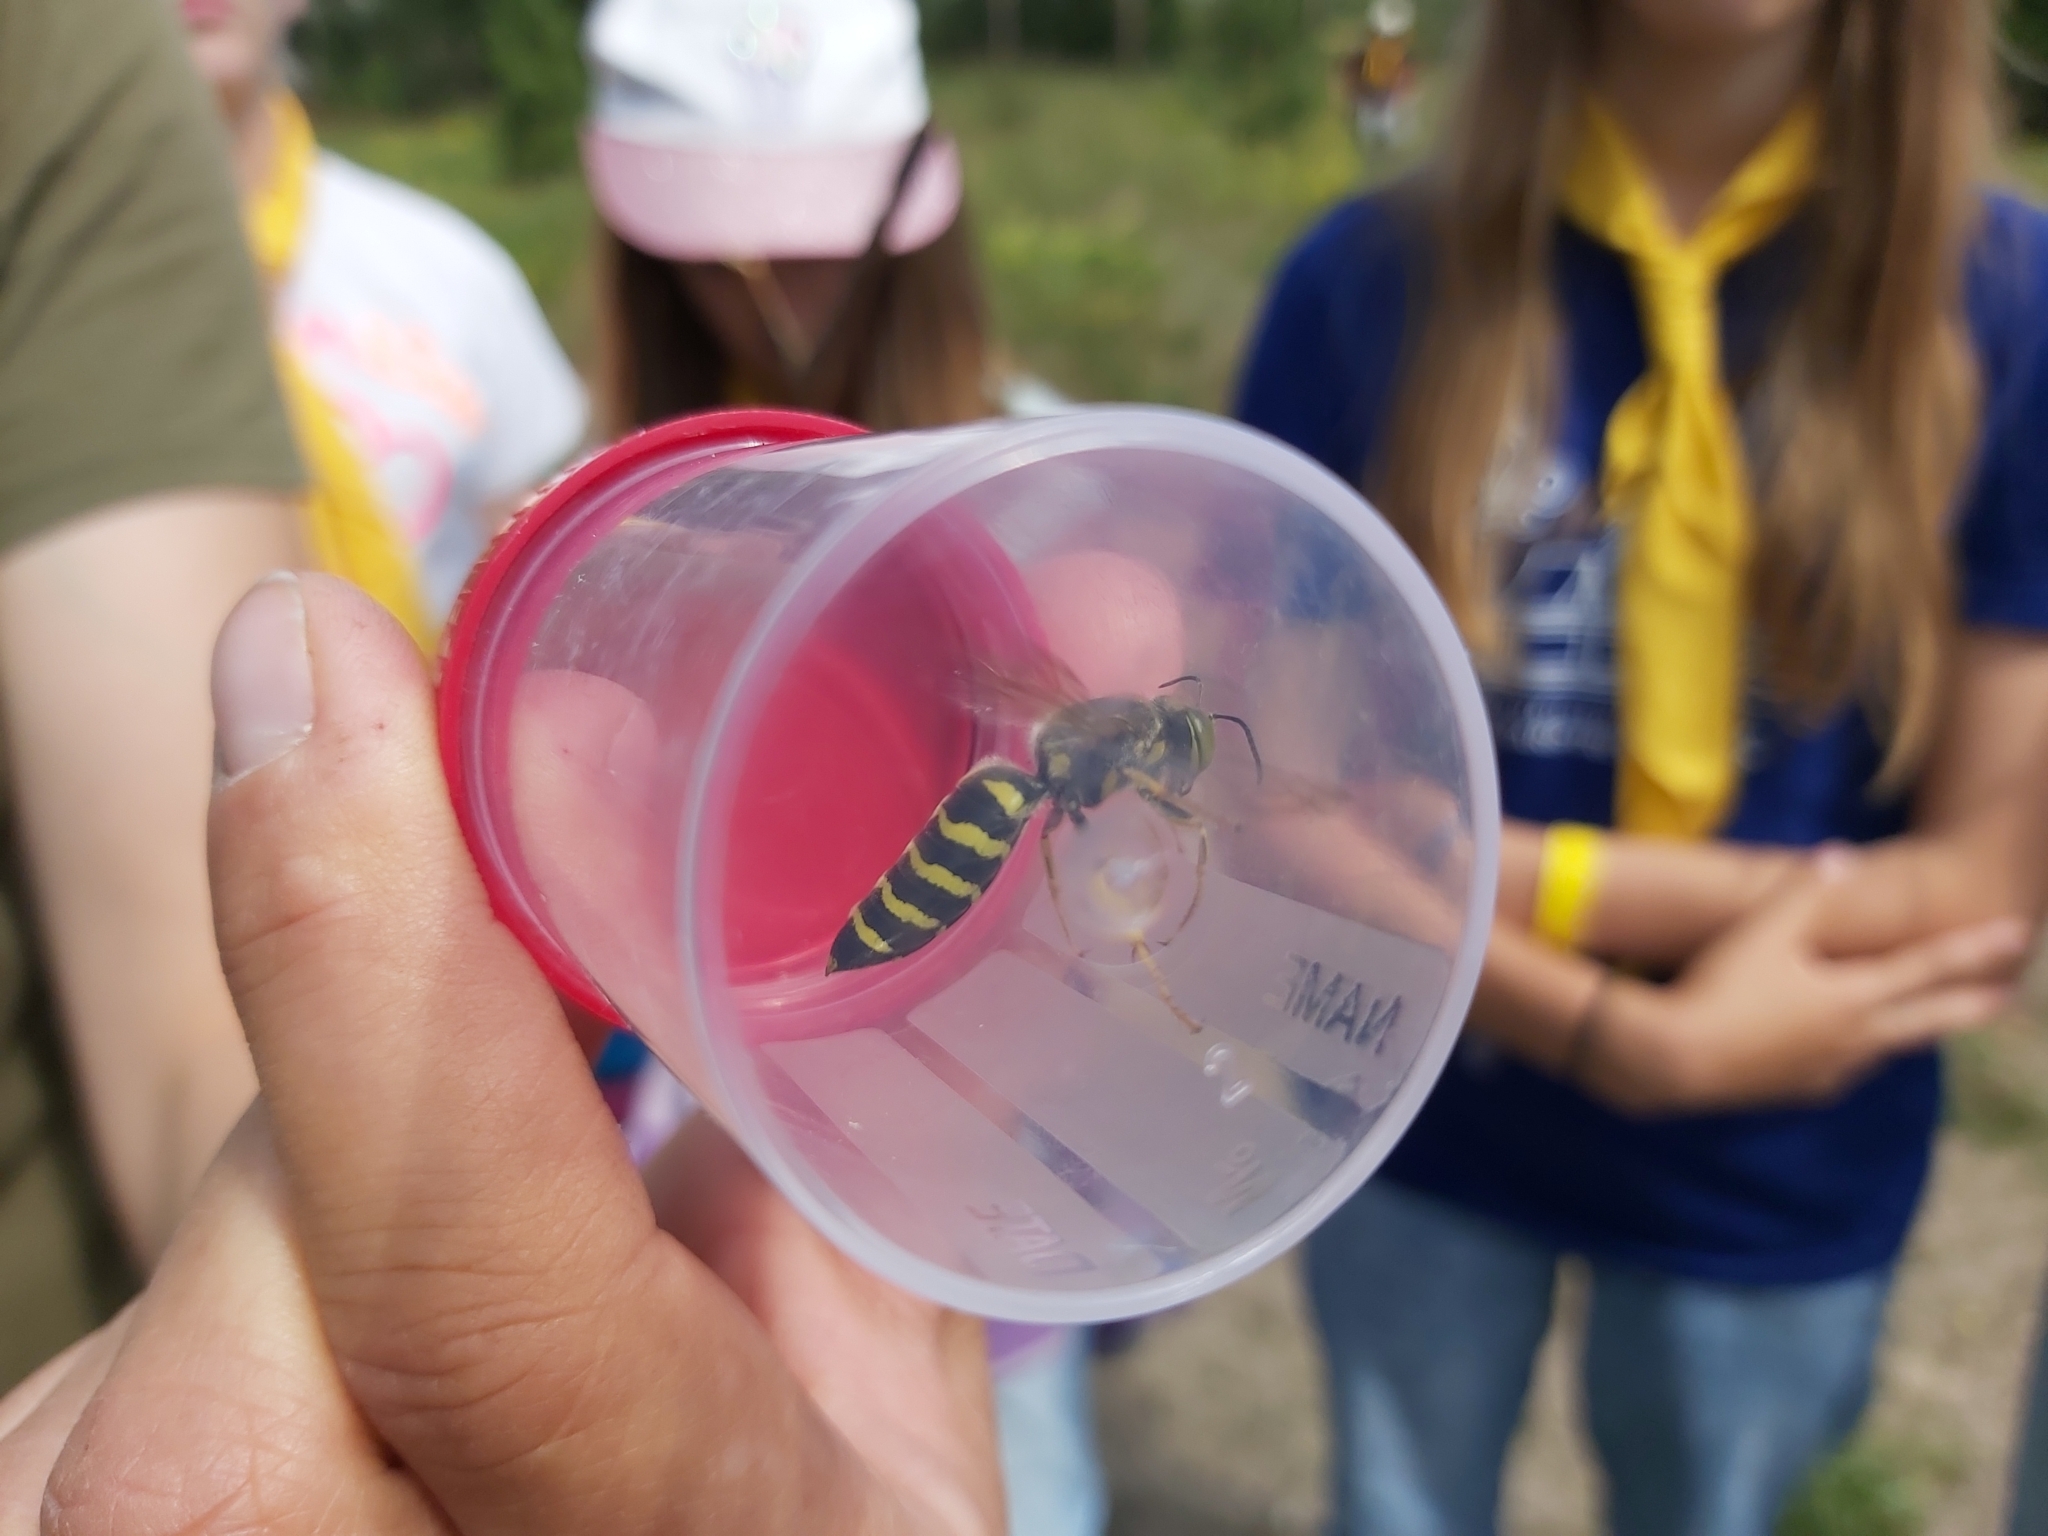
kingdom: Animalia
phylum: Arthropoda
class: Insecta
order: Hymenoptera
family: Crabronidae
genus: Bembix
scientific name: Bembix rostrata
